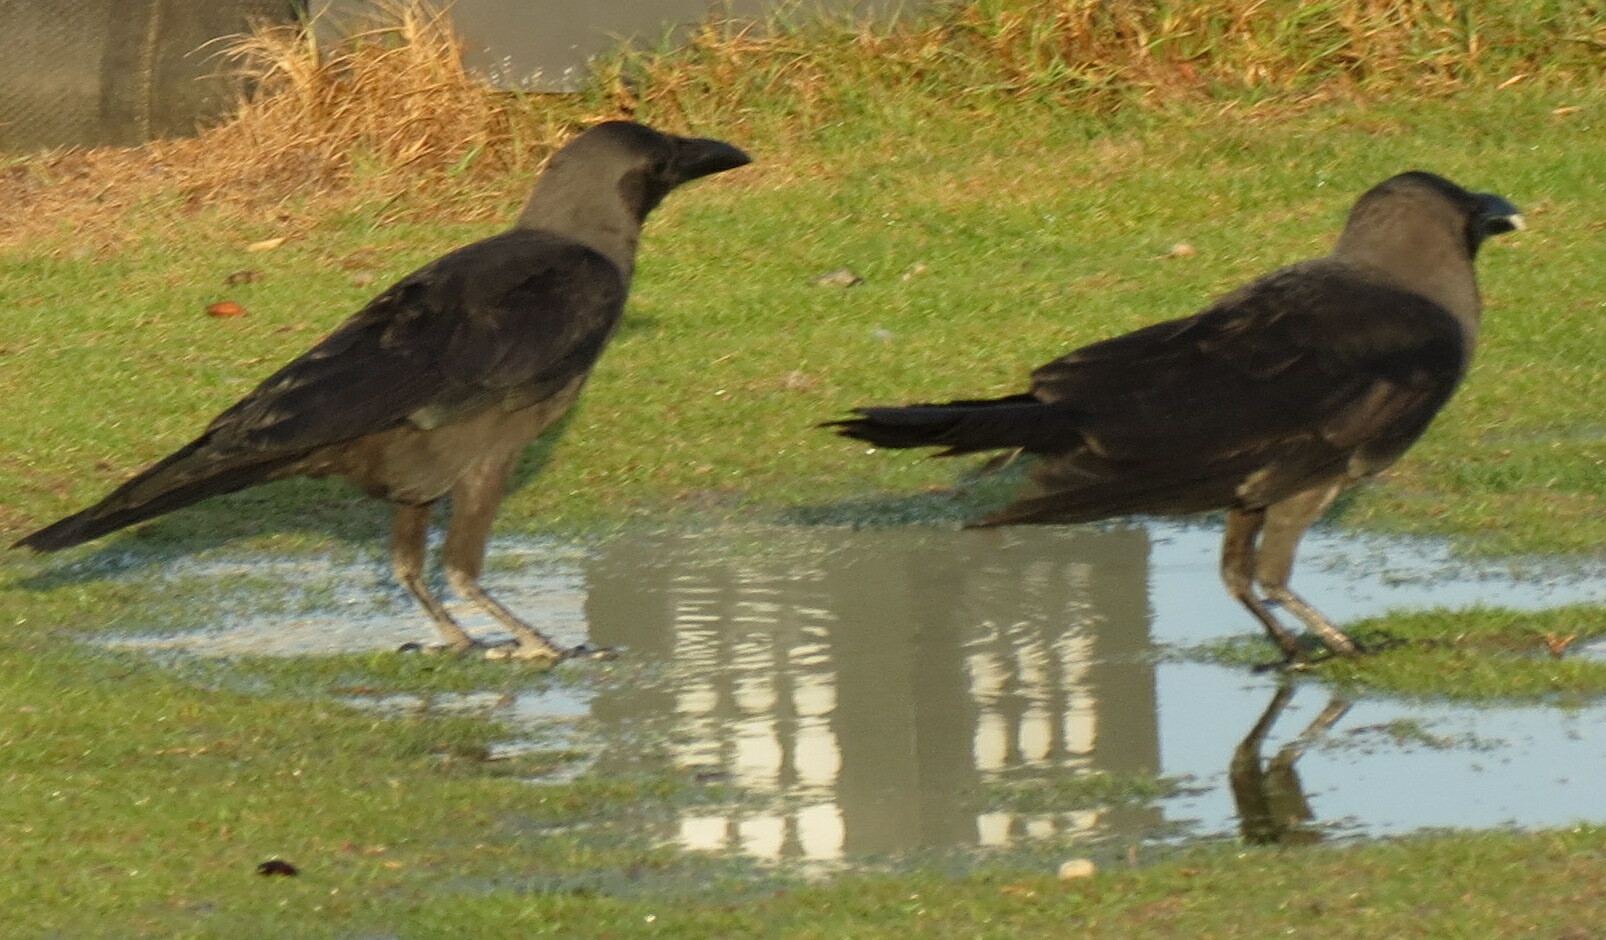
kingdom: Animalia
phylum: Chordata
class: Aves
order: Passeriformes
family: Corvidae
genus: Corvus
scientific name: Corvus splendens
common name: House crow
